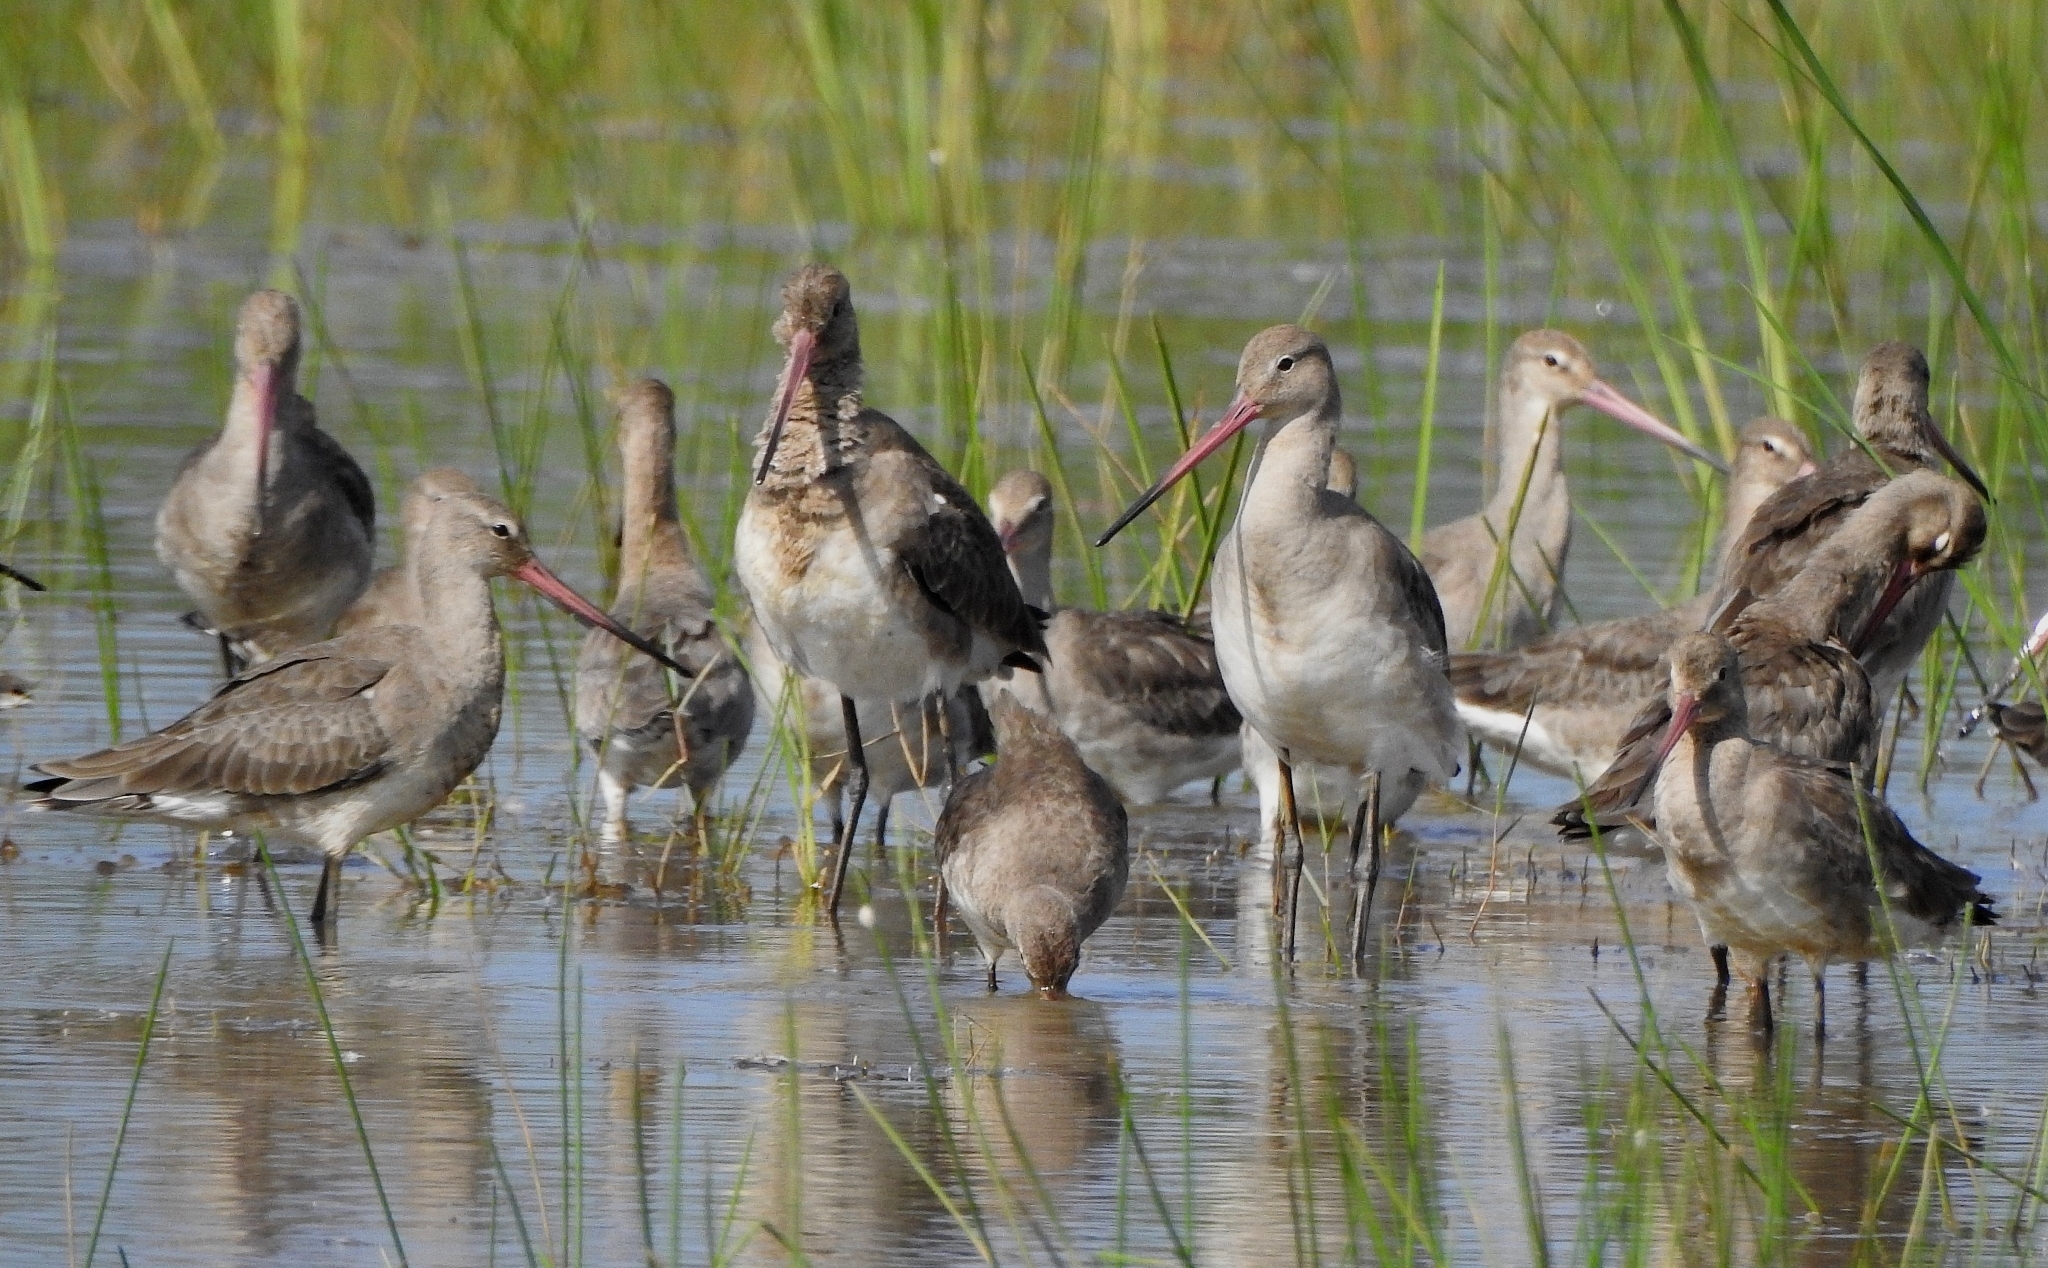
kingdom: Animalia
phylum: Chordata
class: Aves
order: Charadriiformes
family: Scolopacidae
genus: Limosa
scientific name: Limosa limosa
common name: Black-tailed godwit
